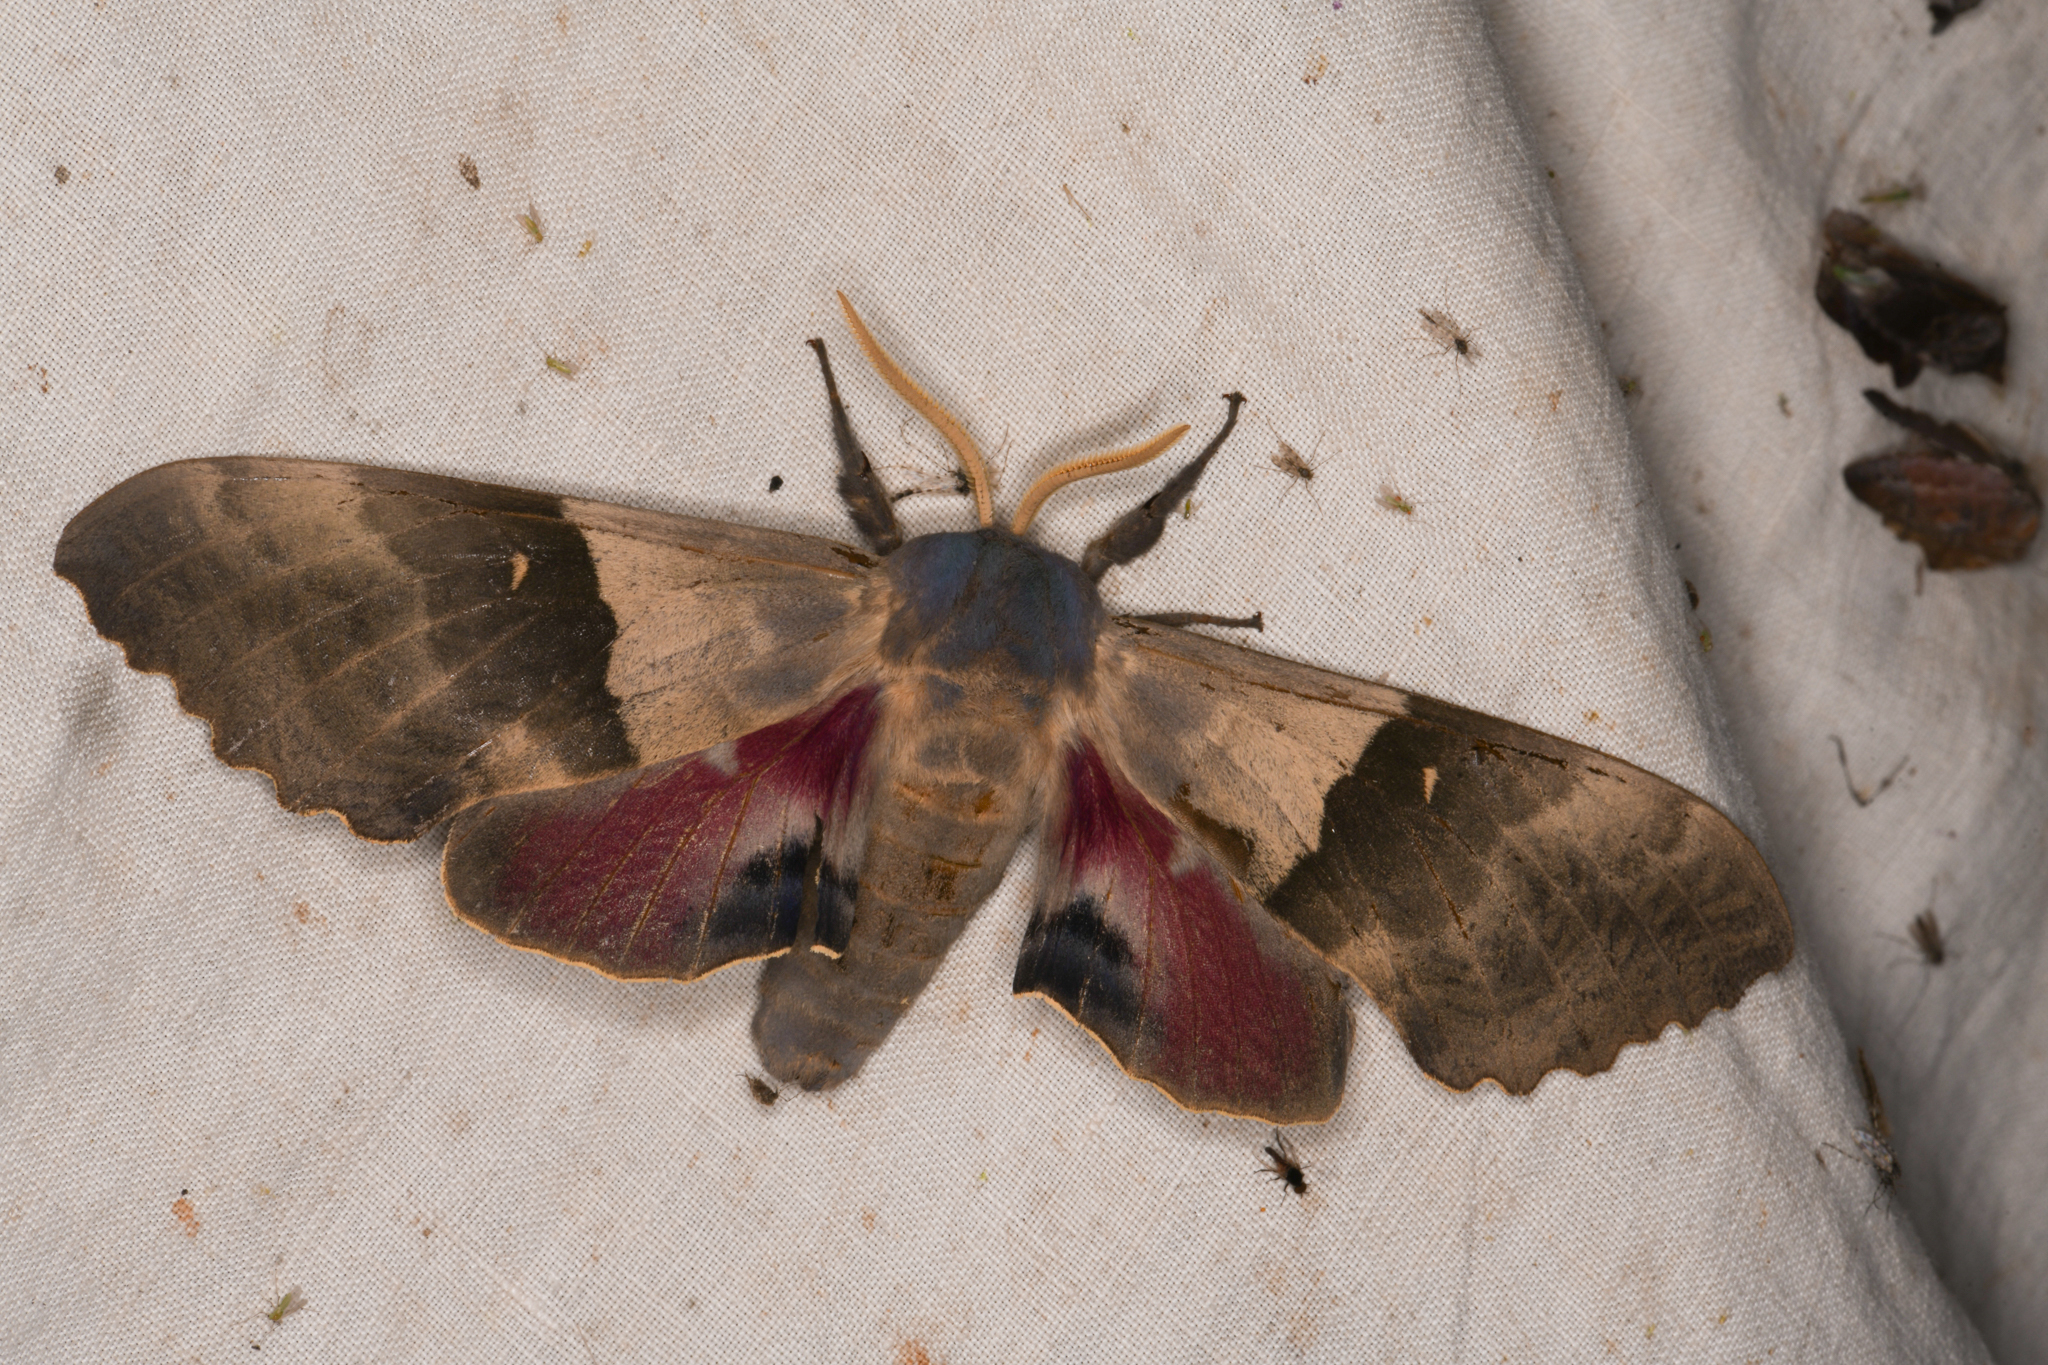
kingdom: Animalia
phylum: Arthropoda
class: Insecta
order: Lepidoptera
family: Sphingidae
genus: Pachysphinx
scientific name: Pachysphinx modesta
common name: Big poplar sphinx
